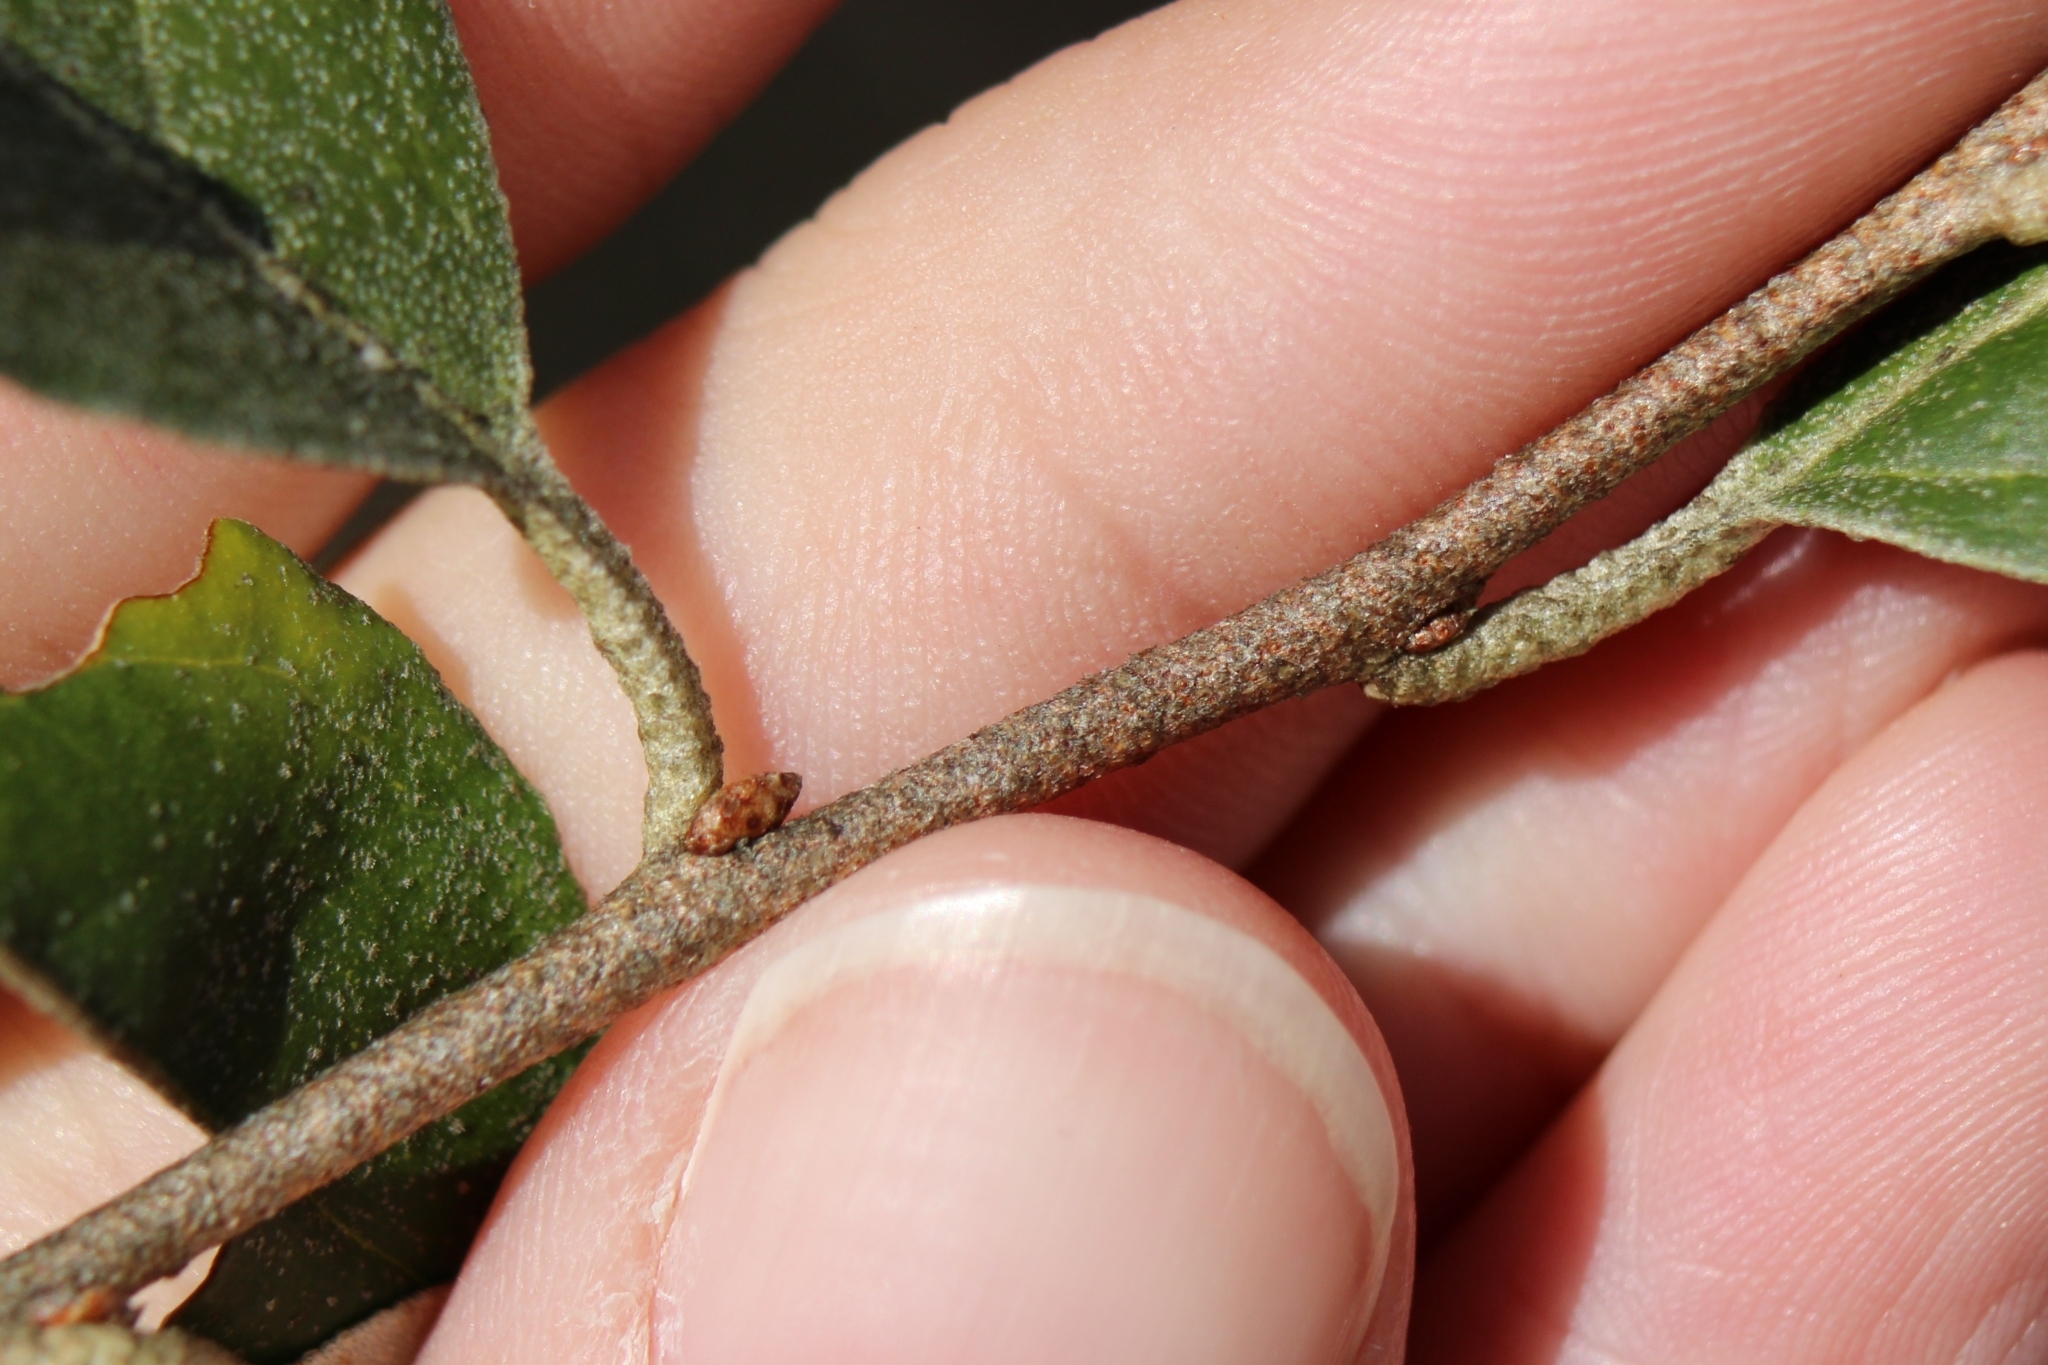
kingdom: Plantae
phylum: Tracheophyta
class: Magnoliopsida
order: Rosales
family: Elaeagnaceae
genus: Elaeagnus
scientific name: Elaeagnus umbellata
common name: Autumn olive
